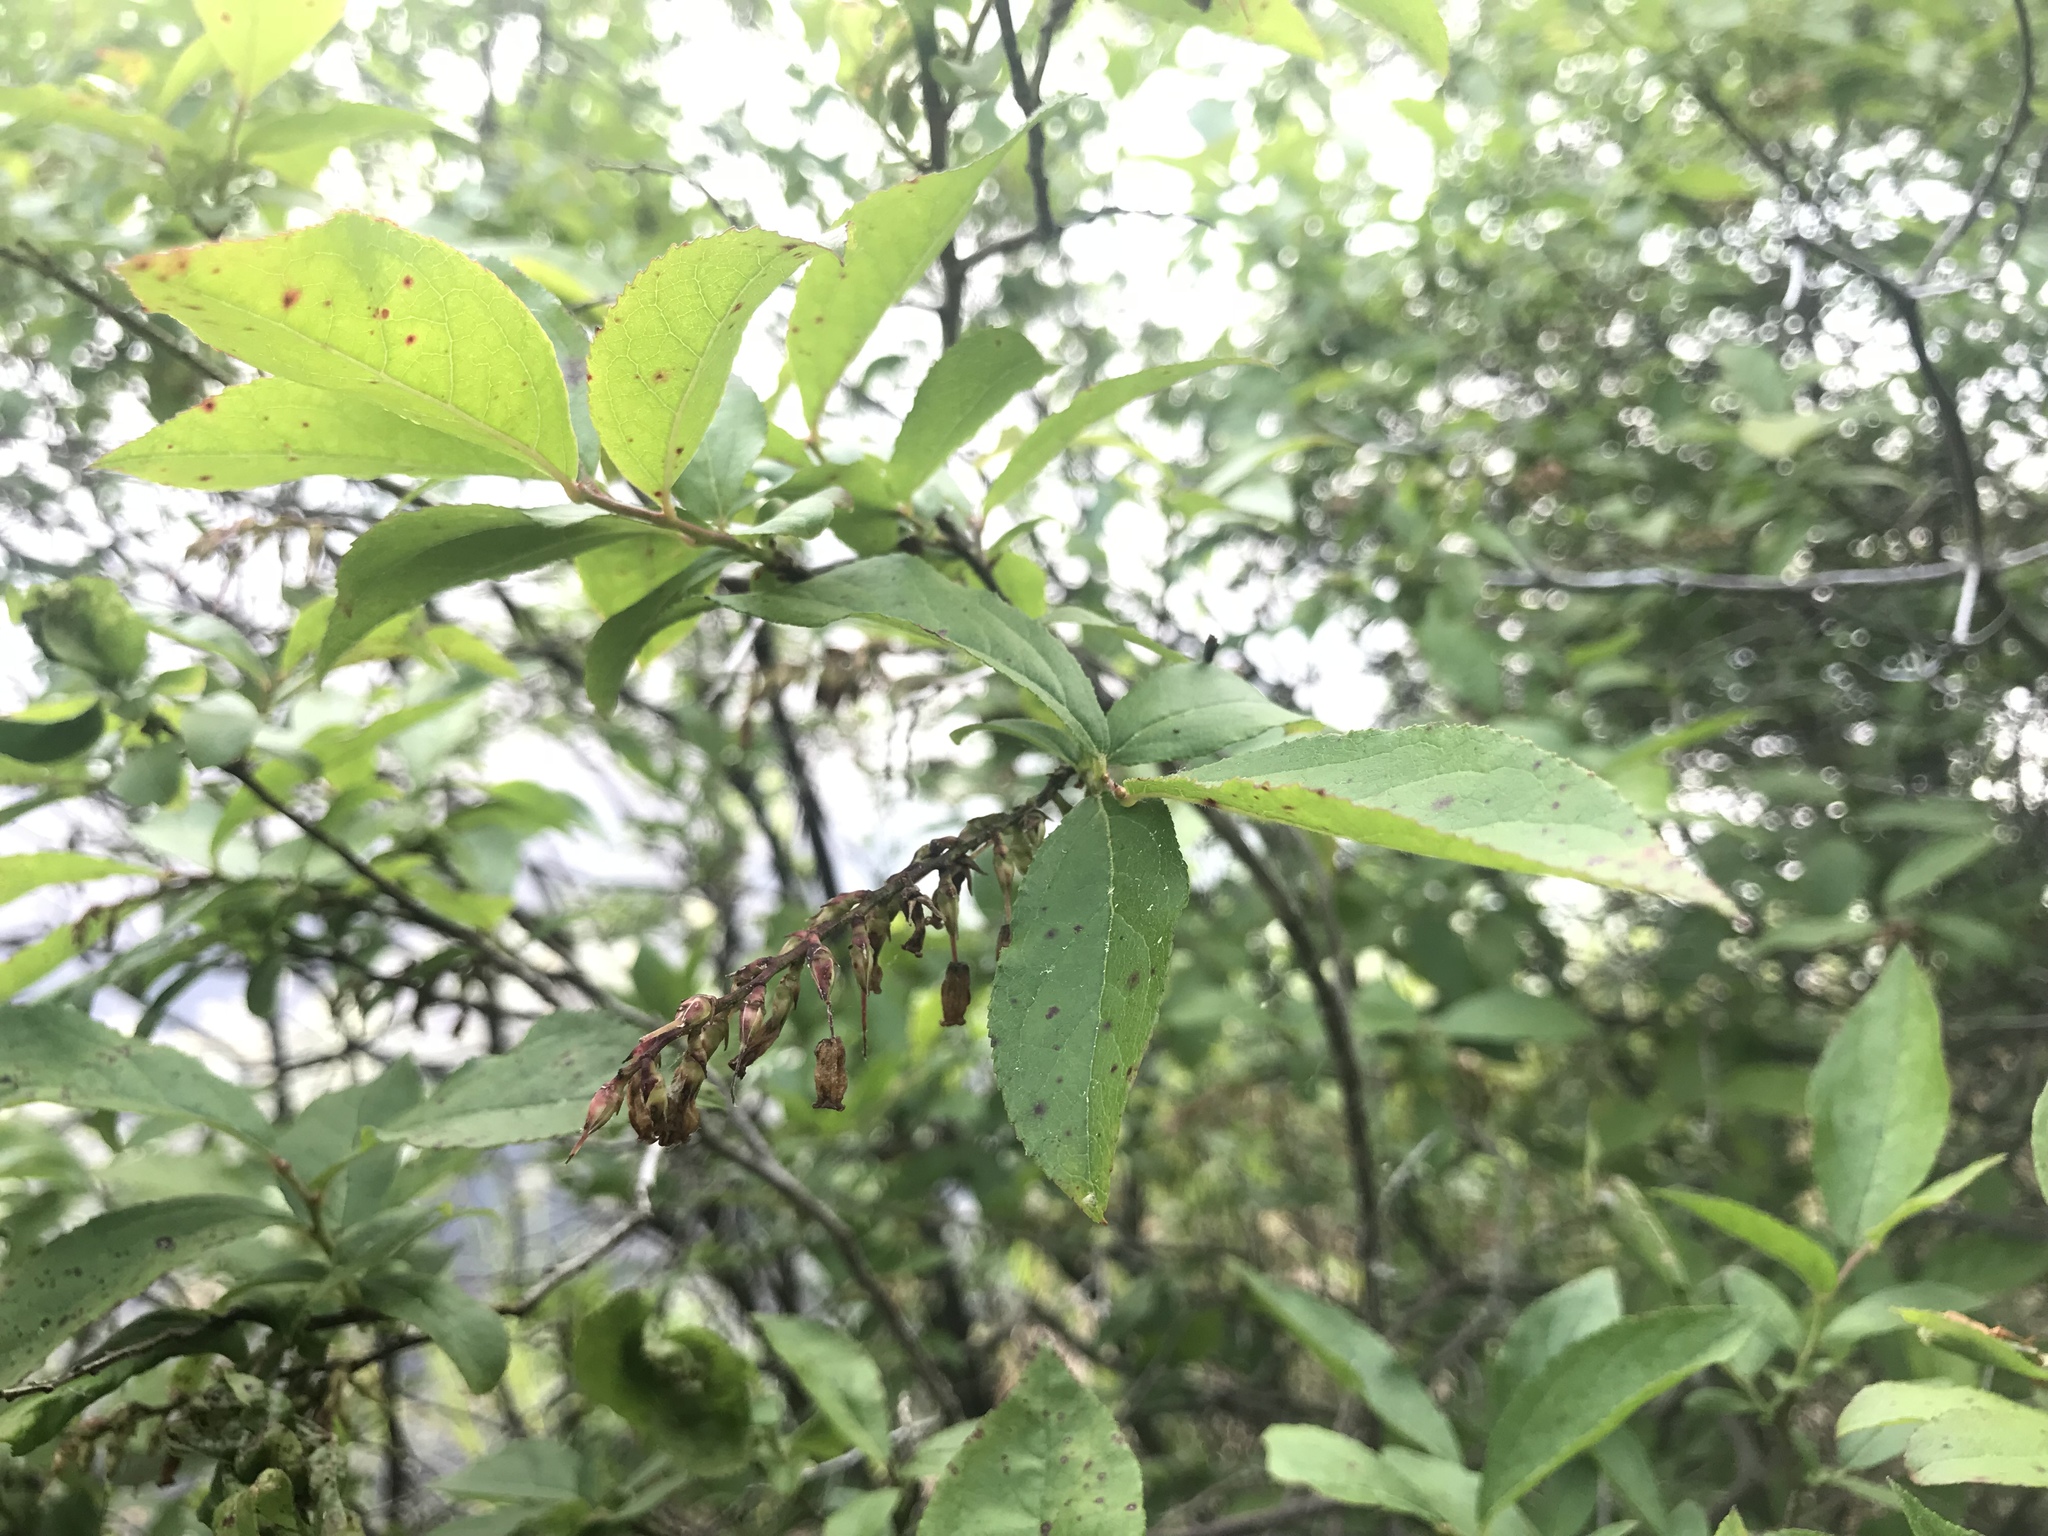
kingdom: Plantae
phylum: Tracheophyta
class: Magnoliopsida
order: Ericales
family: Ericaceae
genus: Eubotrys
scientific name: Eubotrys racemosa
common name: Fetterbush
